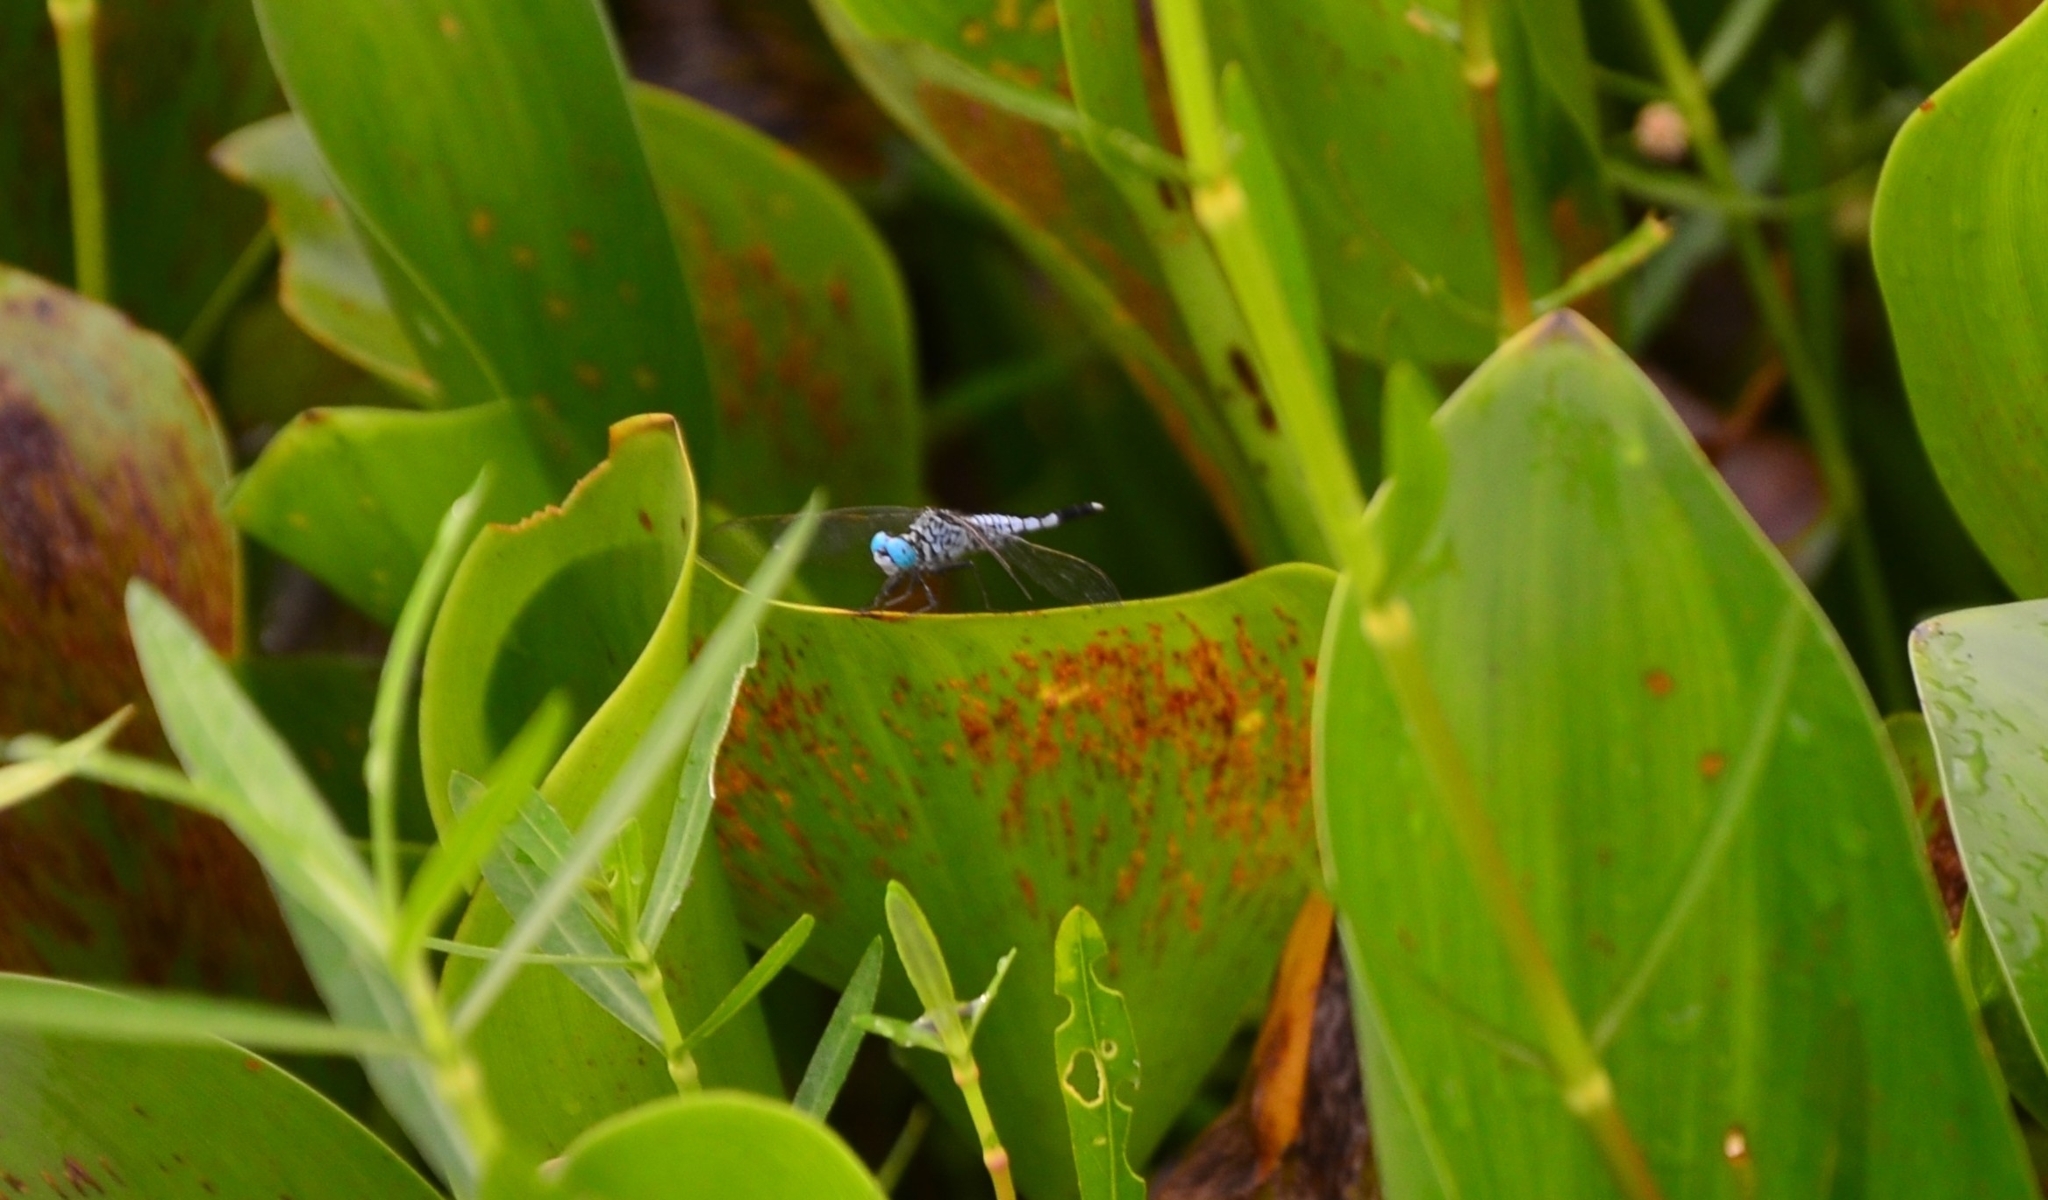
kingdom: Animalia
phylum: Arthropoda
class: Insecta
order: Odonata
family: Libellulidae
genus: Acisoma
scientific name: Acisoma panorpoides
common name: Asian pintail
